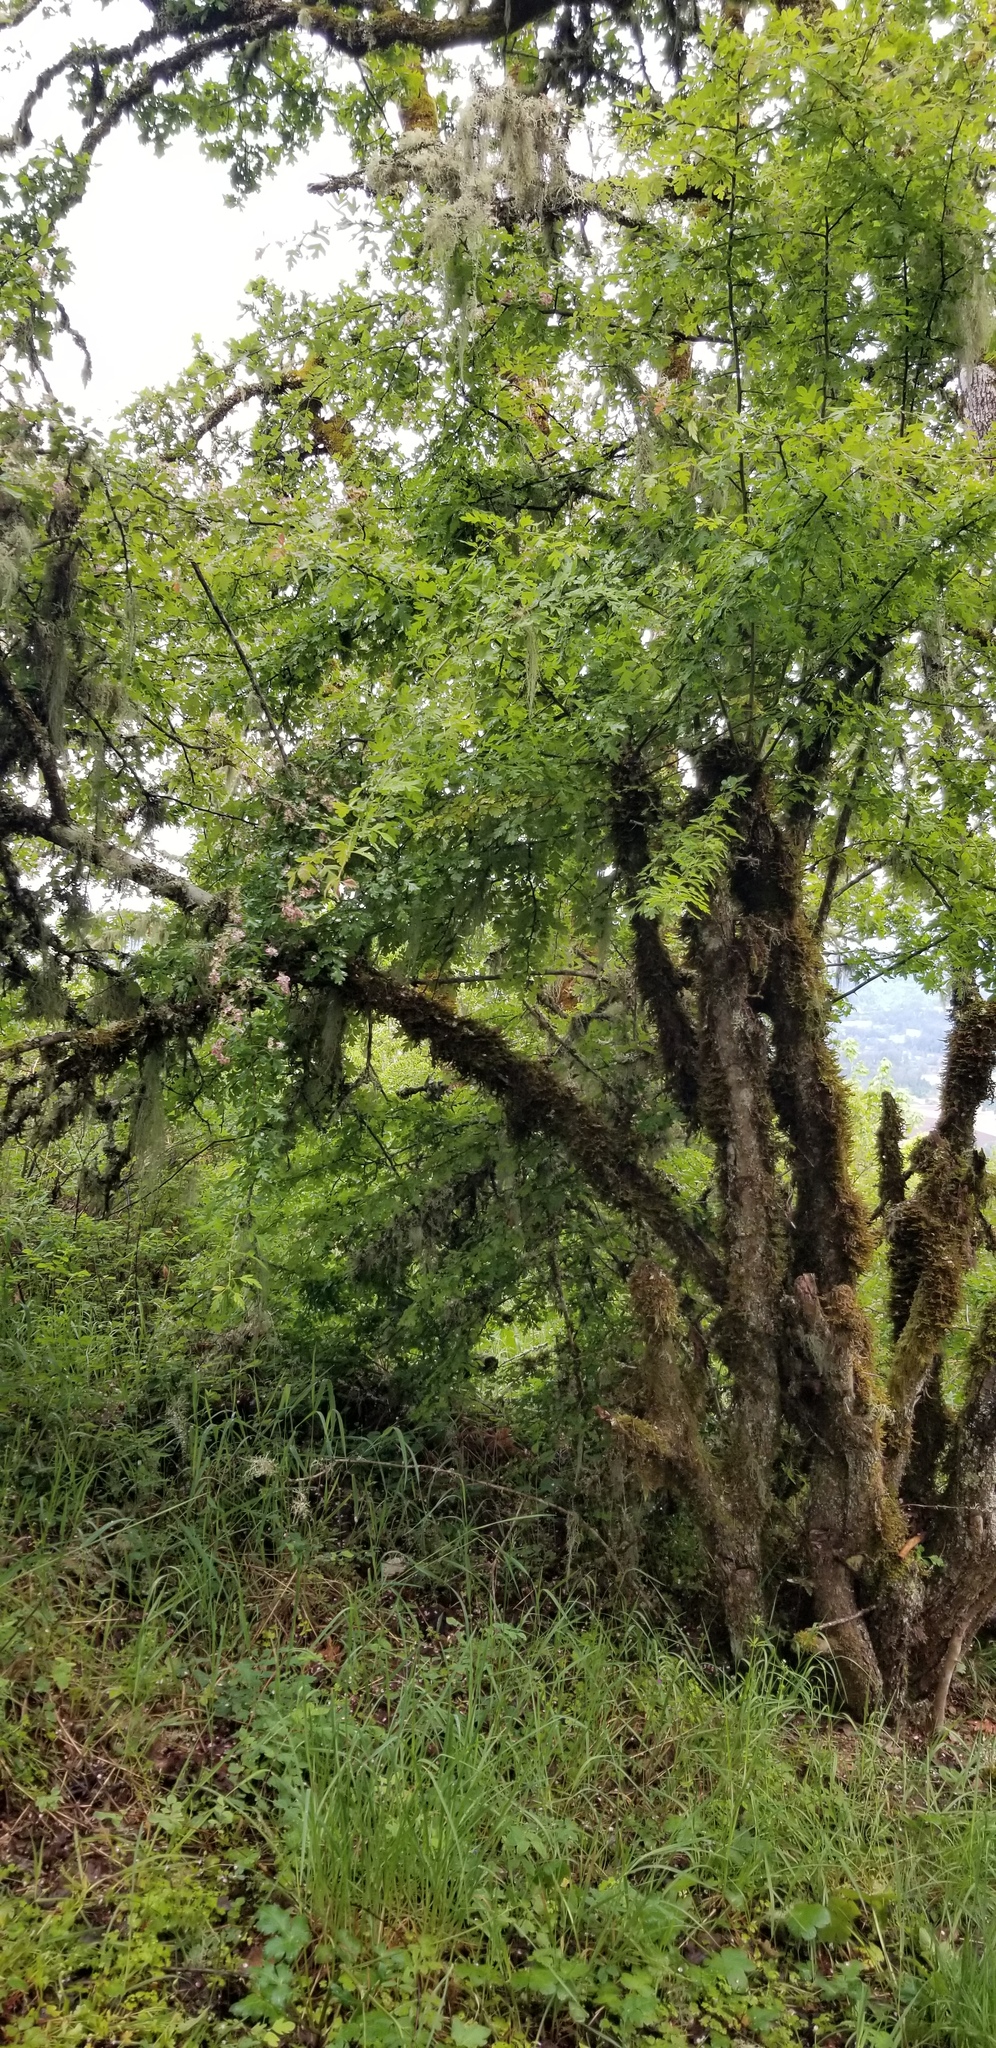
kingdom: Plantae
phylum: Tracheophyta
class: Magnoliopsida
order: Rosales
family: Rosaceae
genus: Crataegus
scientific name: Crataegus monogyna
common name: Hawthorn
